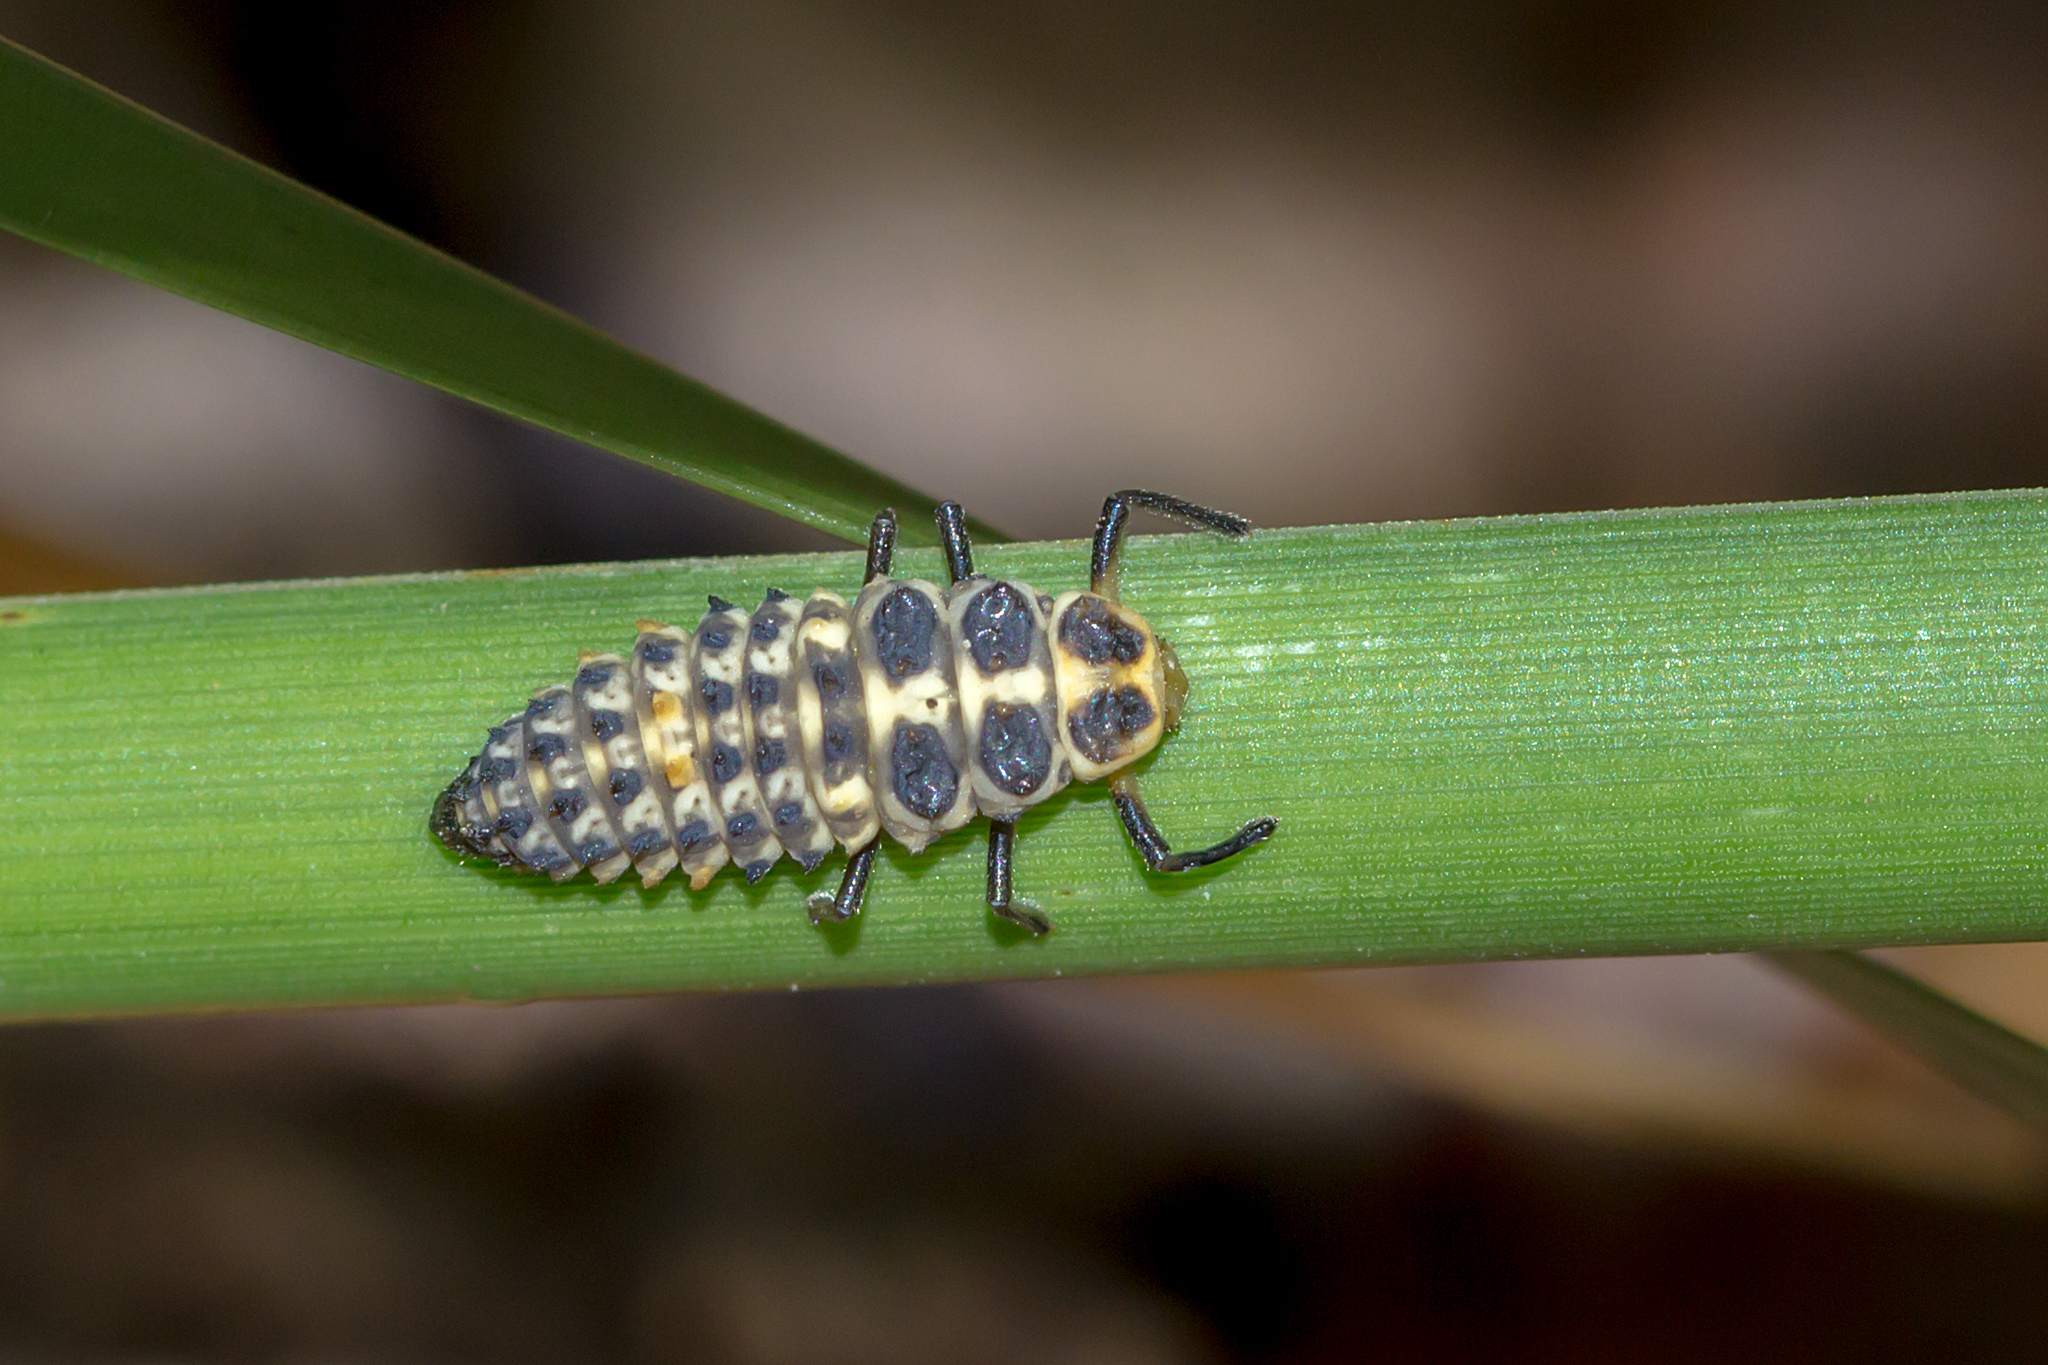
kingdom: Animalia
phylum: Arthropoda
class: Insecta
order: Coleoptera
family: Coccinellidae
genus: Cleobora
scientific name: Cleobora
